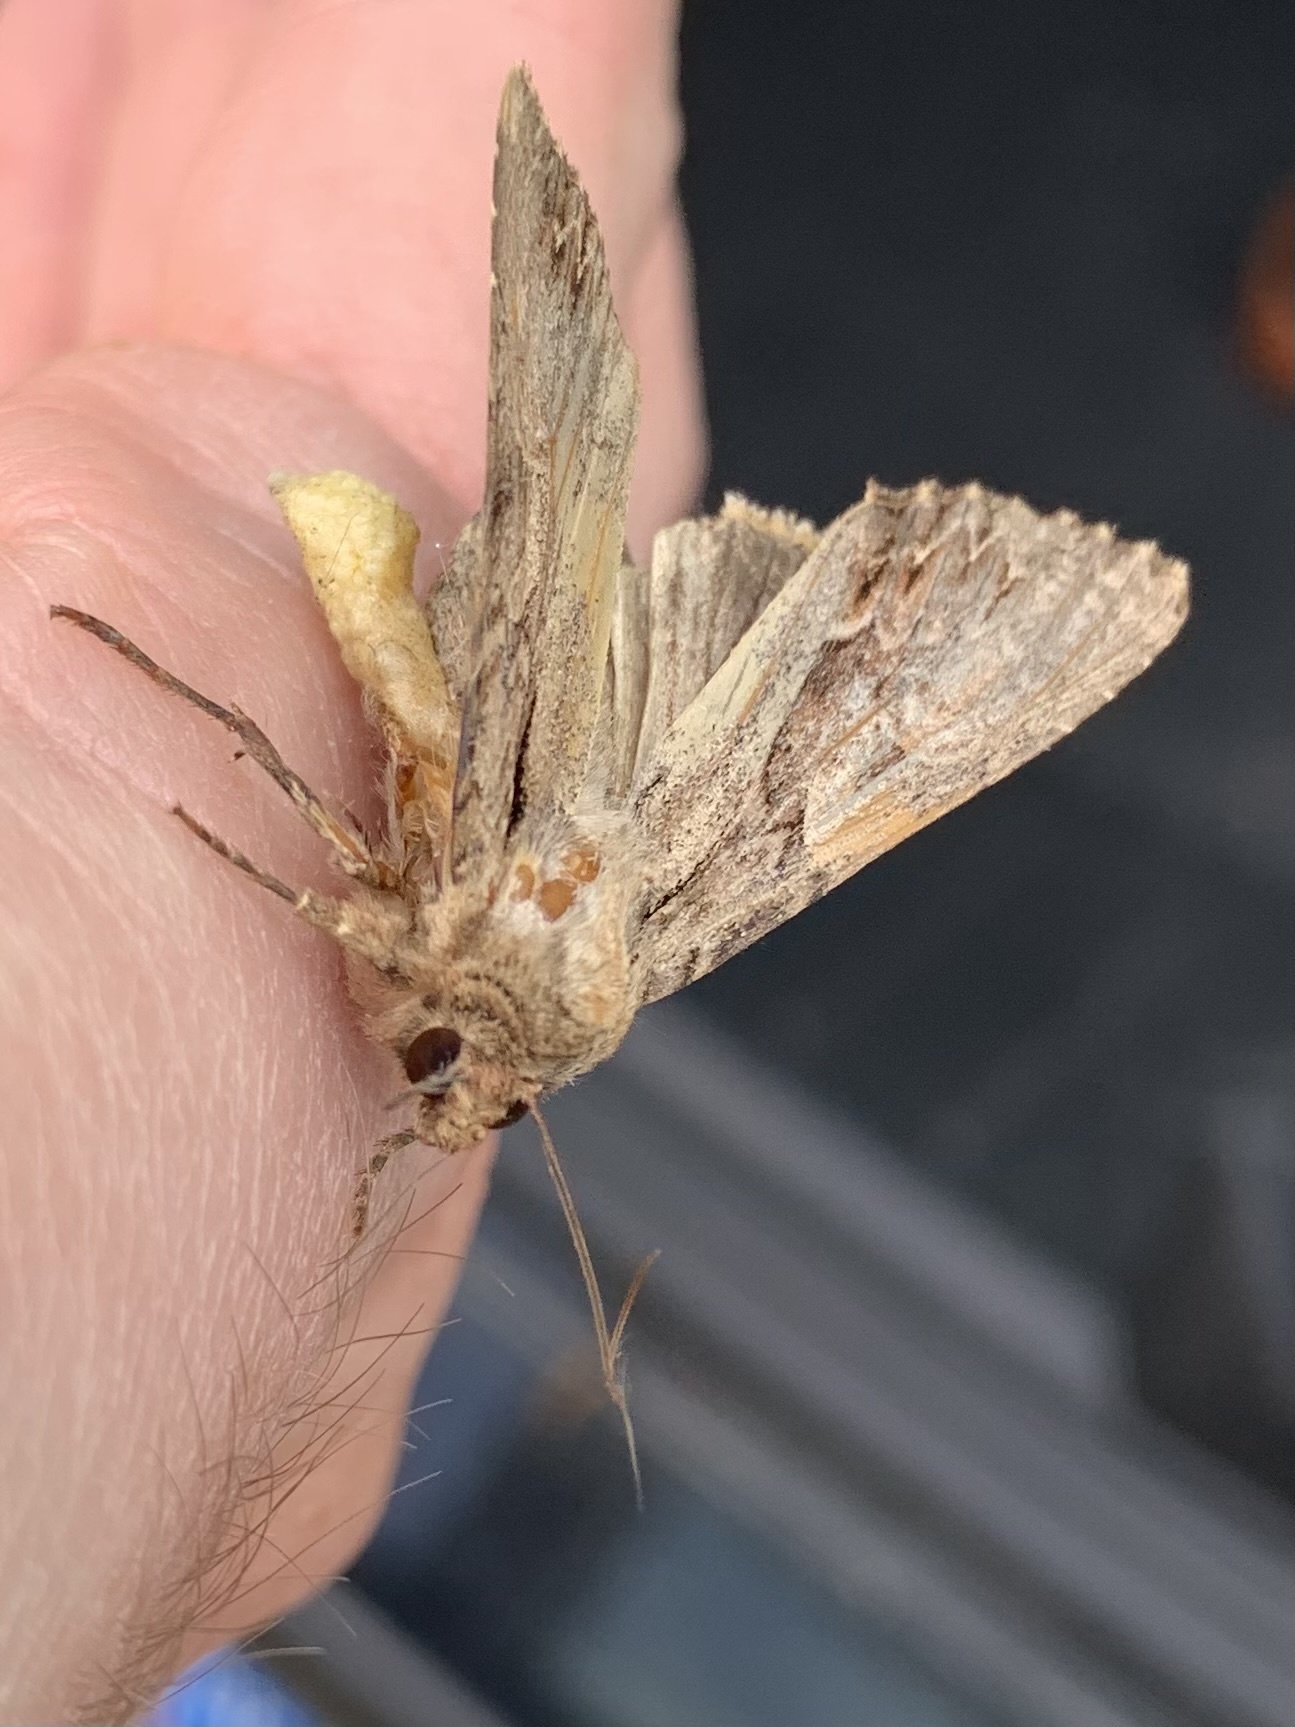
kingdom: Animalia
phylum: Arthropoda
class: Insecta
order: Lepidoptera
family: Noctuidae
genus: Apamea
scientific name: Apamea monoglypha
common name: Dark arches
